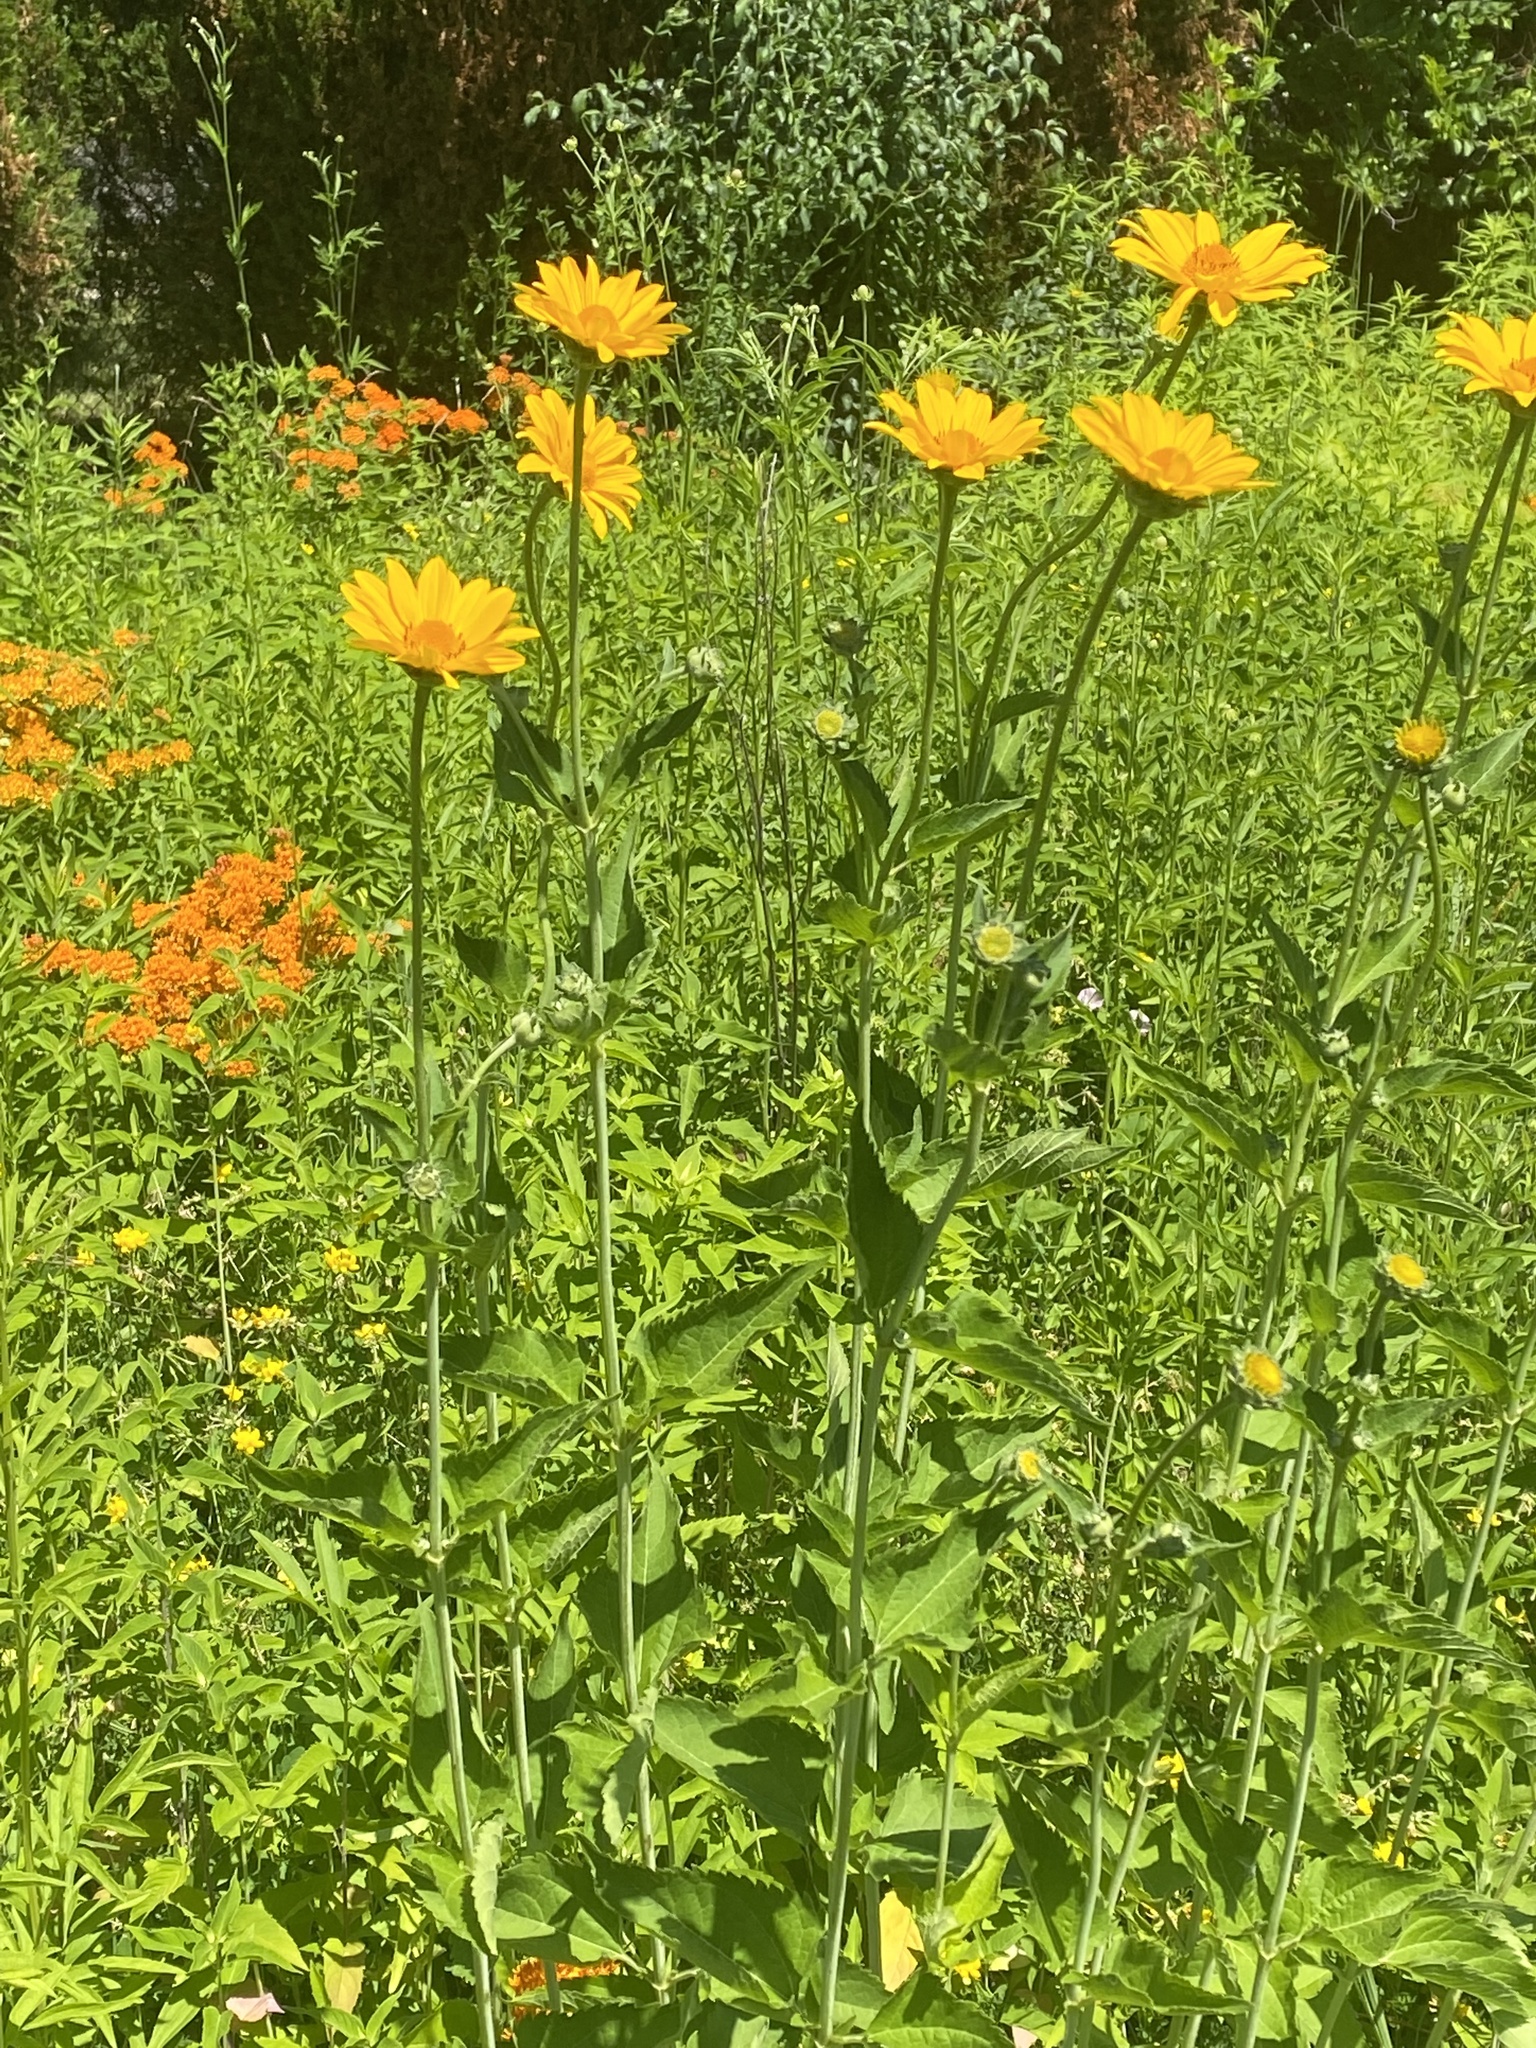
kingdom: Plantae
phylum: Tracheophyta
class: Magnoliopsida
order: Asterales
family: Asteraceae
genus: Heliopsis
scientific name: Heliopsis helianthoides
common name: False sunflower
